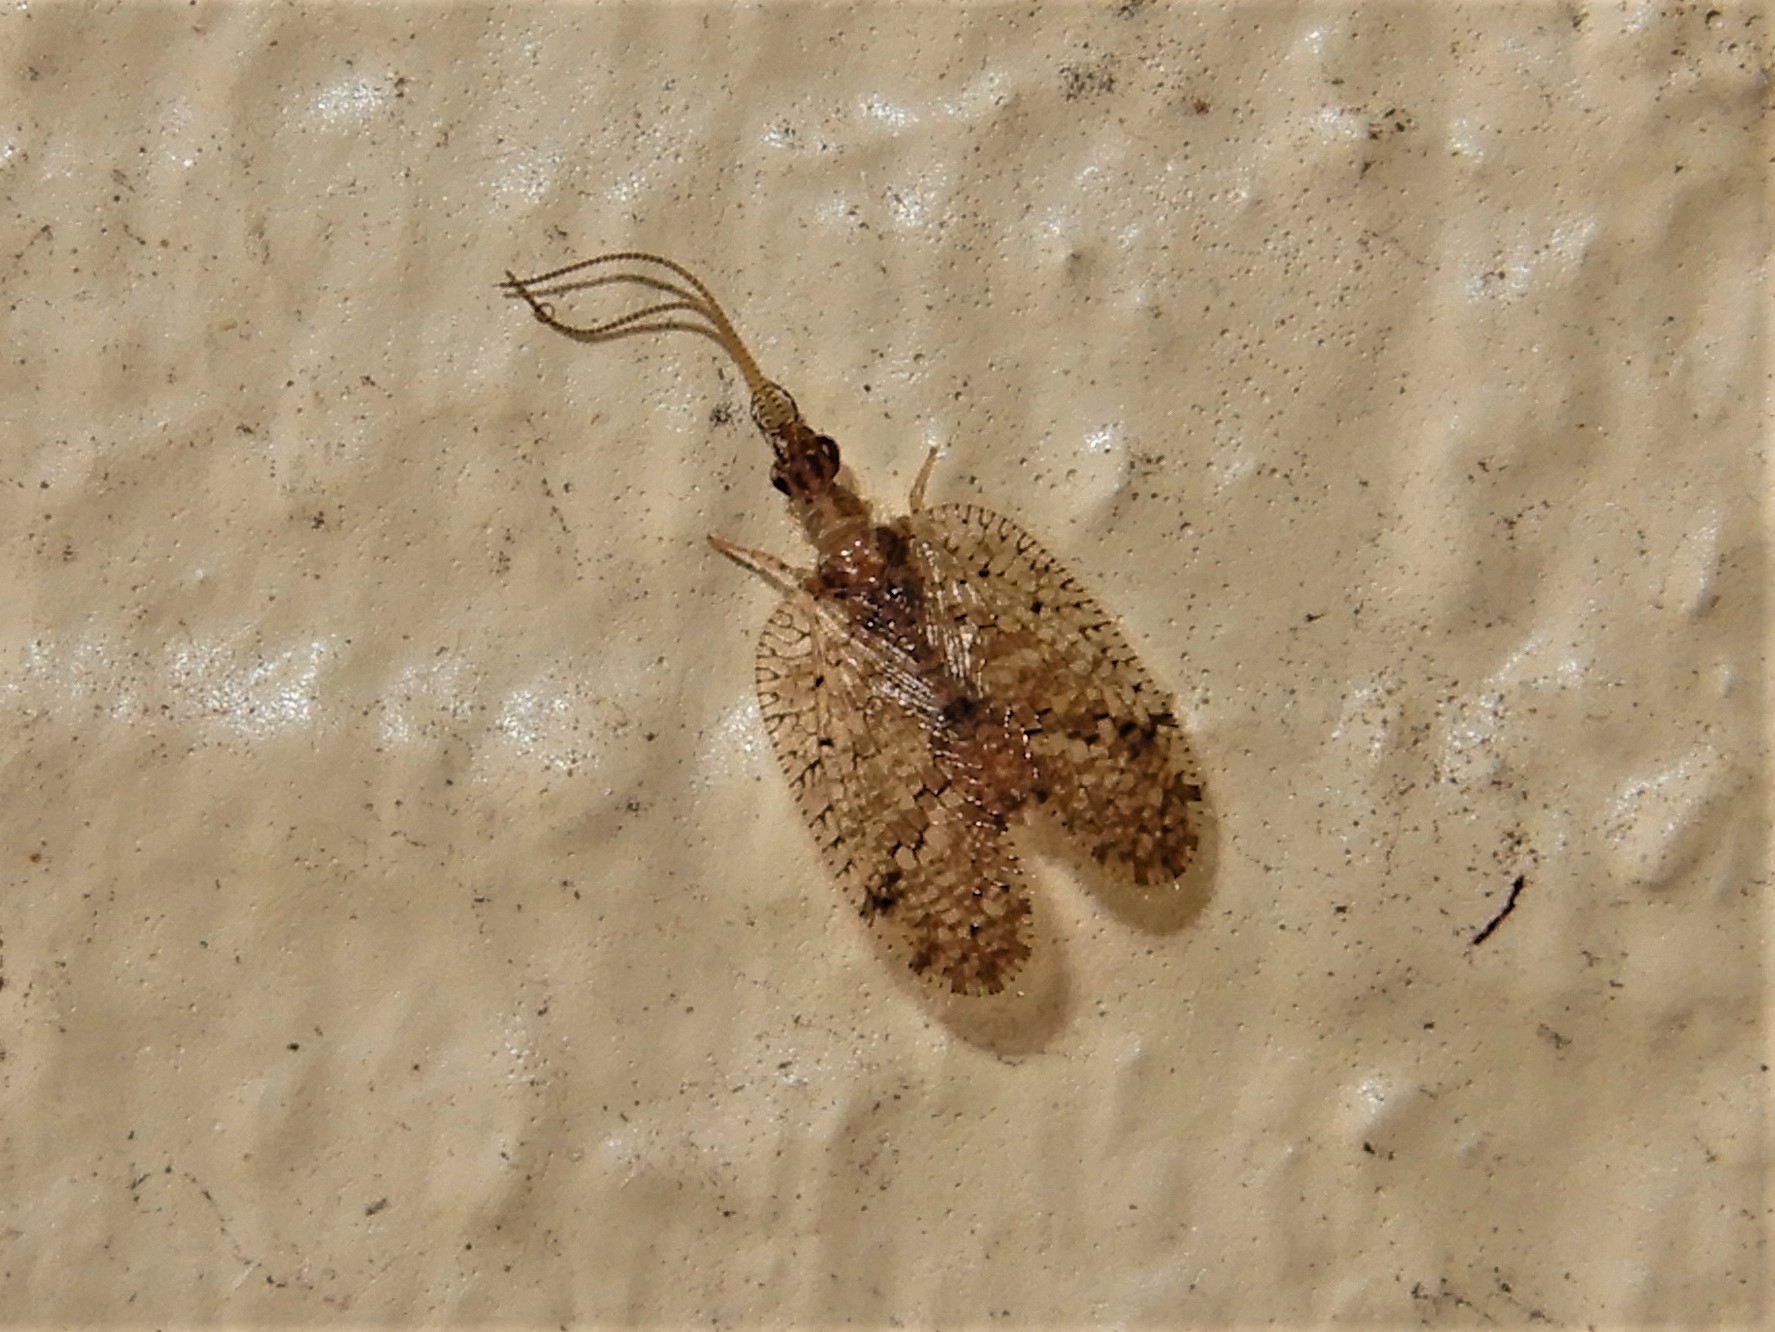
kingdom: Animalia
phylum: Arthropoda
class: Insecta
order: Neuroptera
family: Hemerobiidae
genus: Psectra
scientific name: Psectra nakaharai
